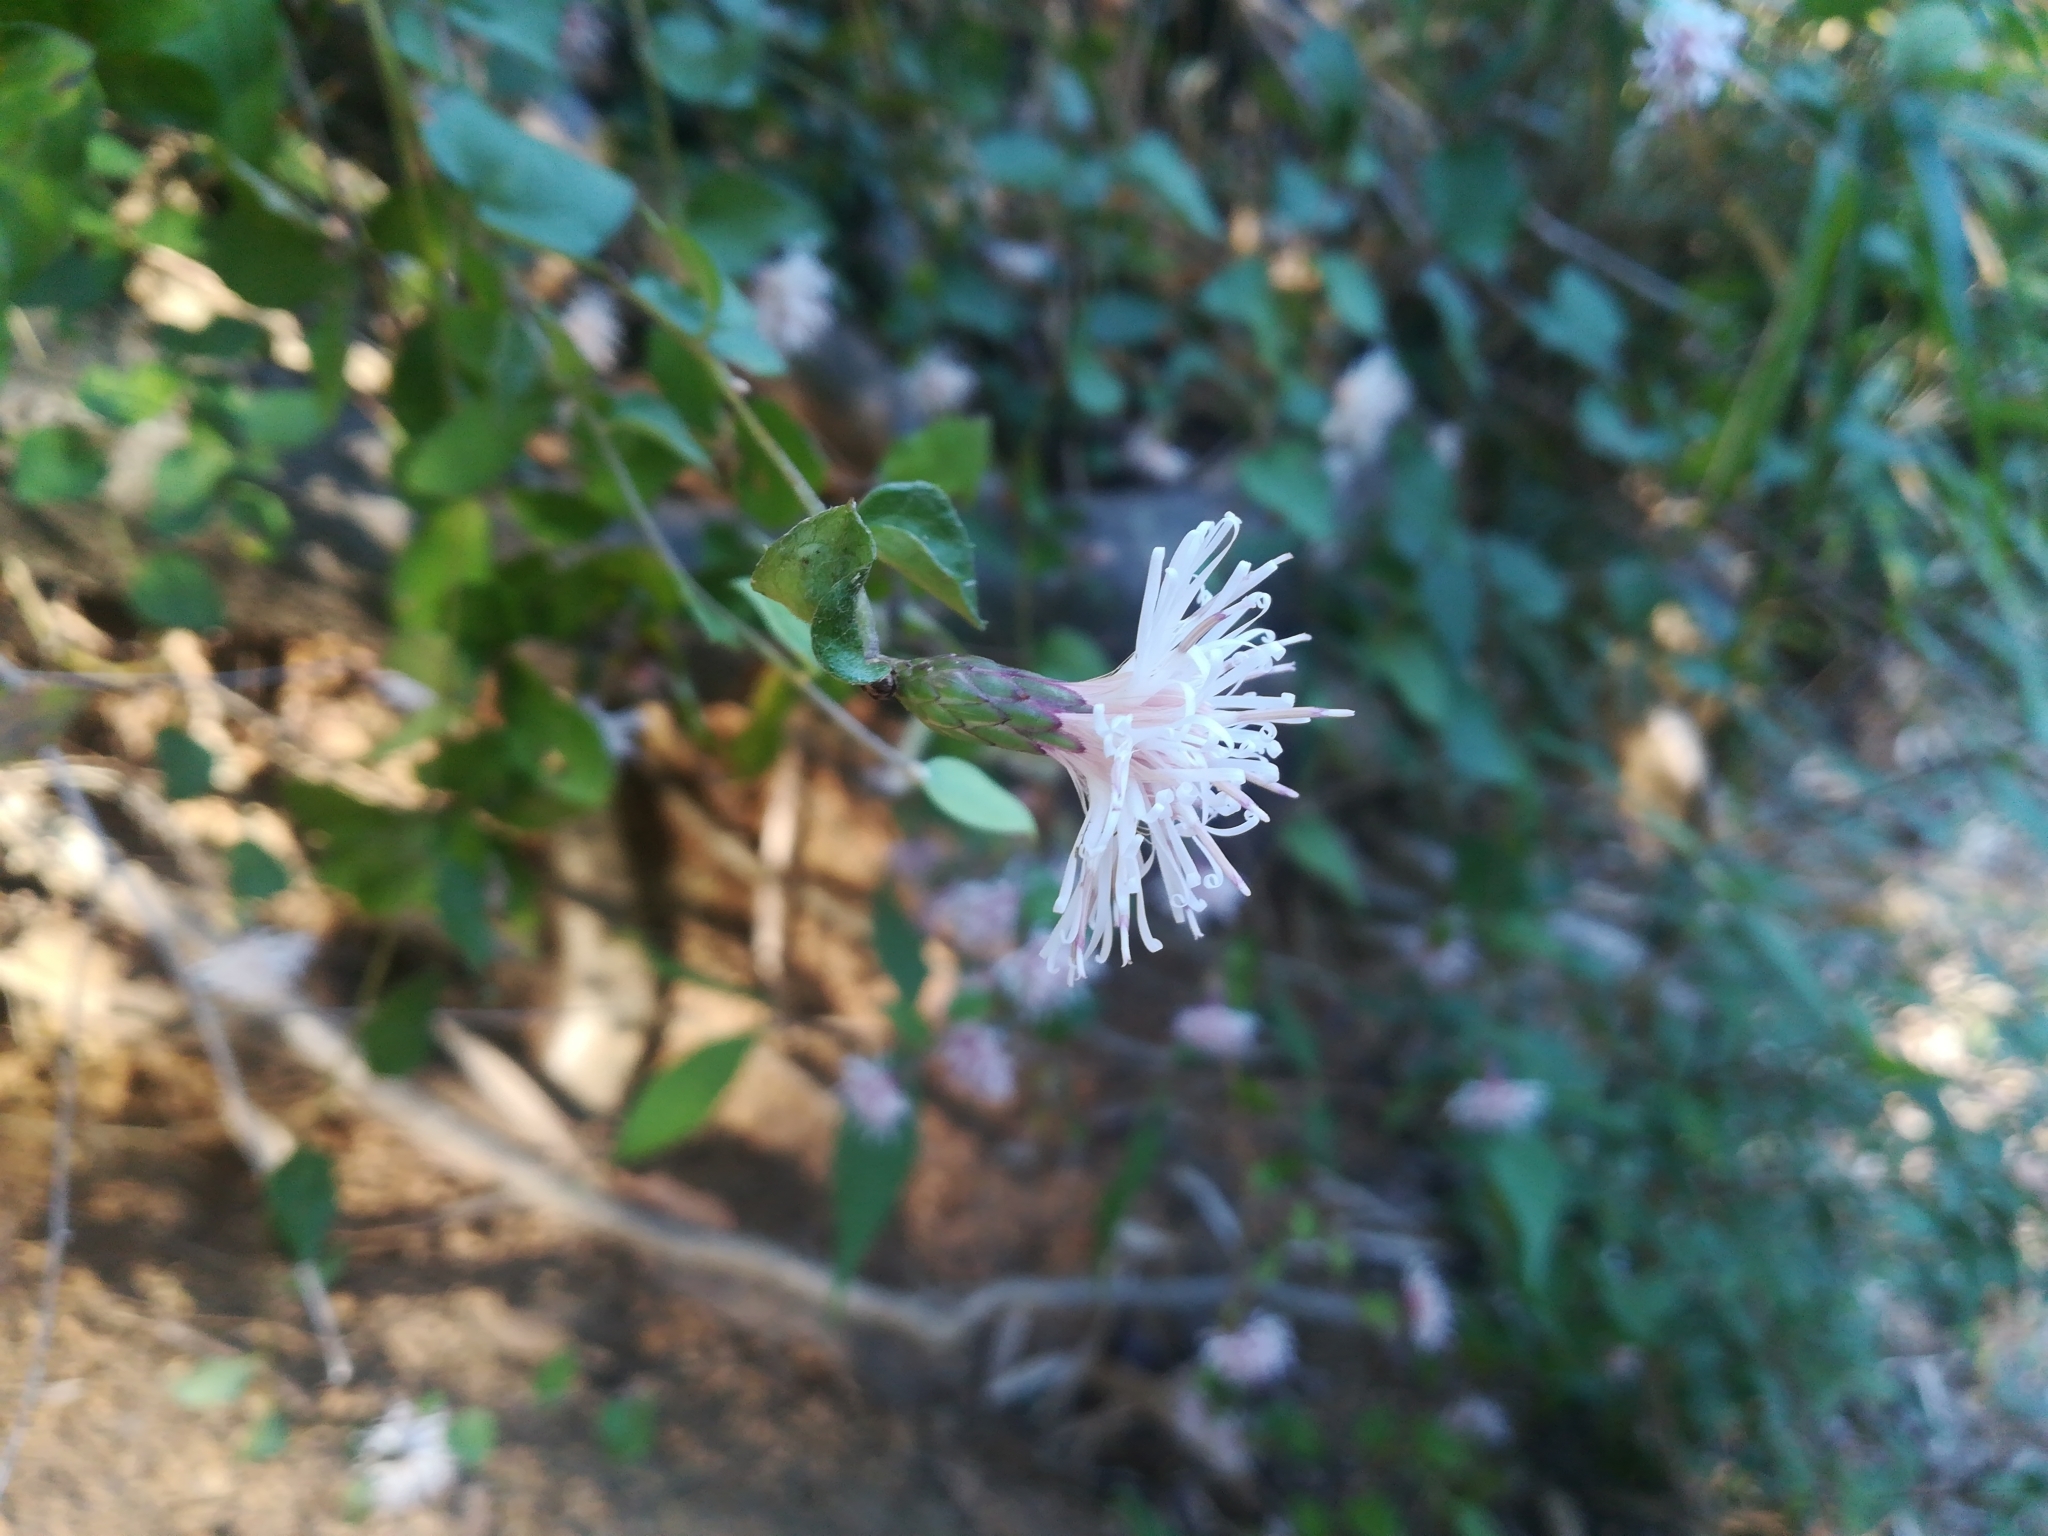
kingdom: Plantae
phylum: Tracheophyta
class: Magnoliopsida
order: Asterales
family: Asteraceae
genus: Pertya
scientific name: Pertya scandens
